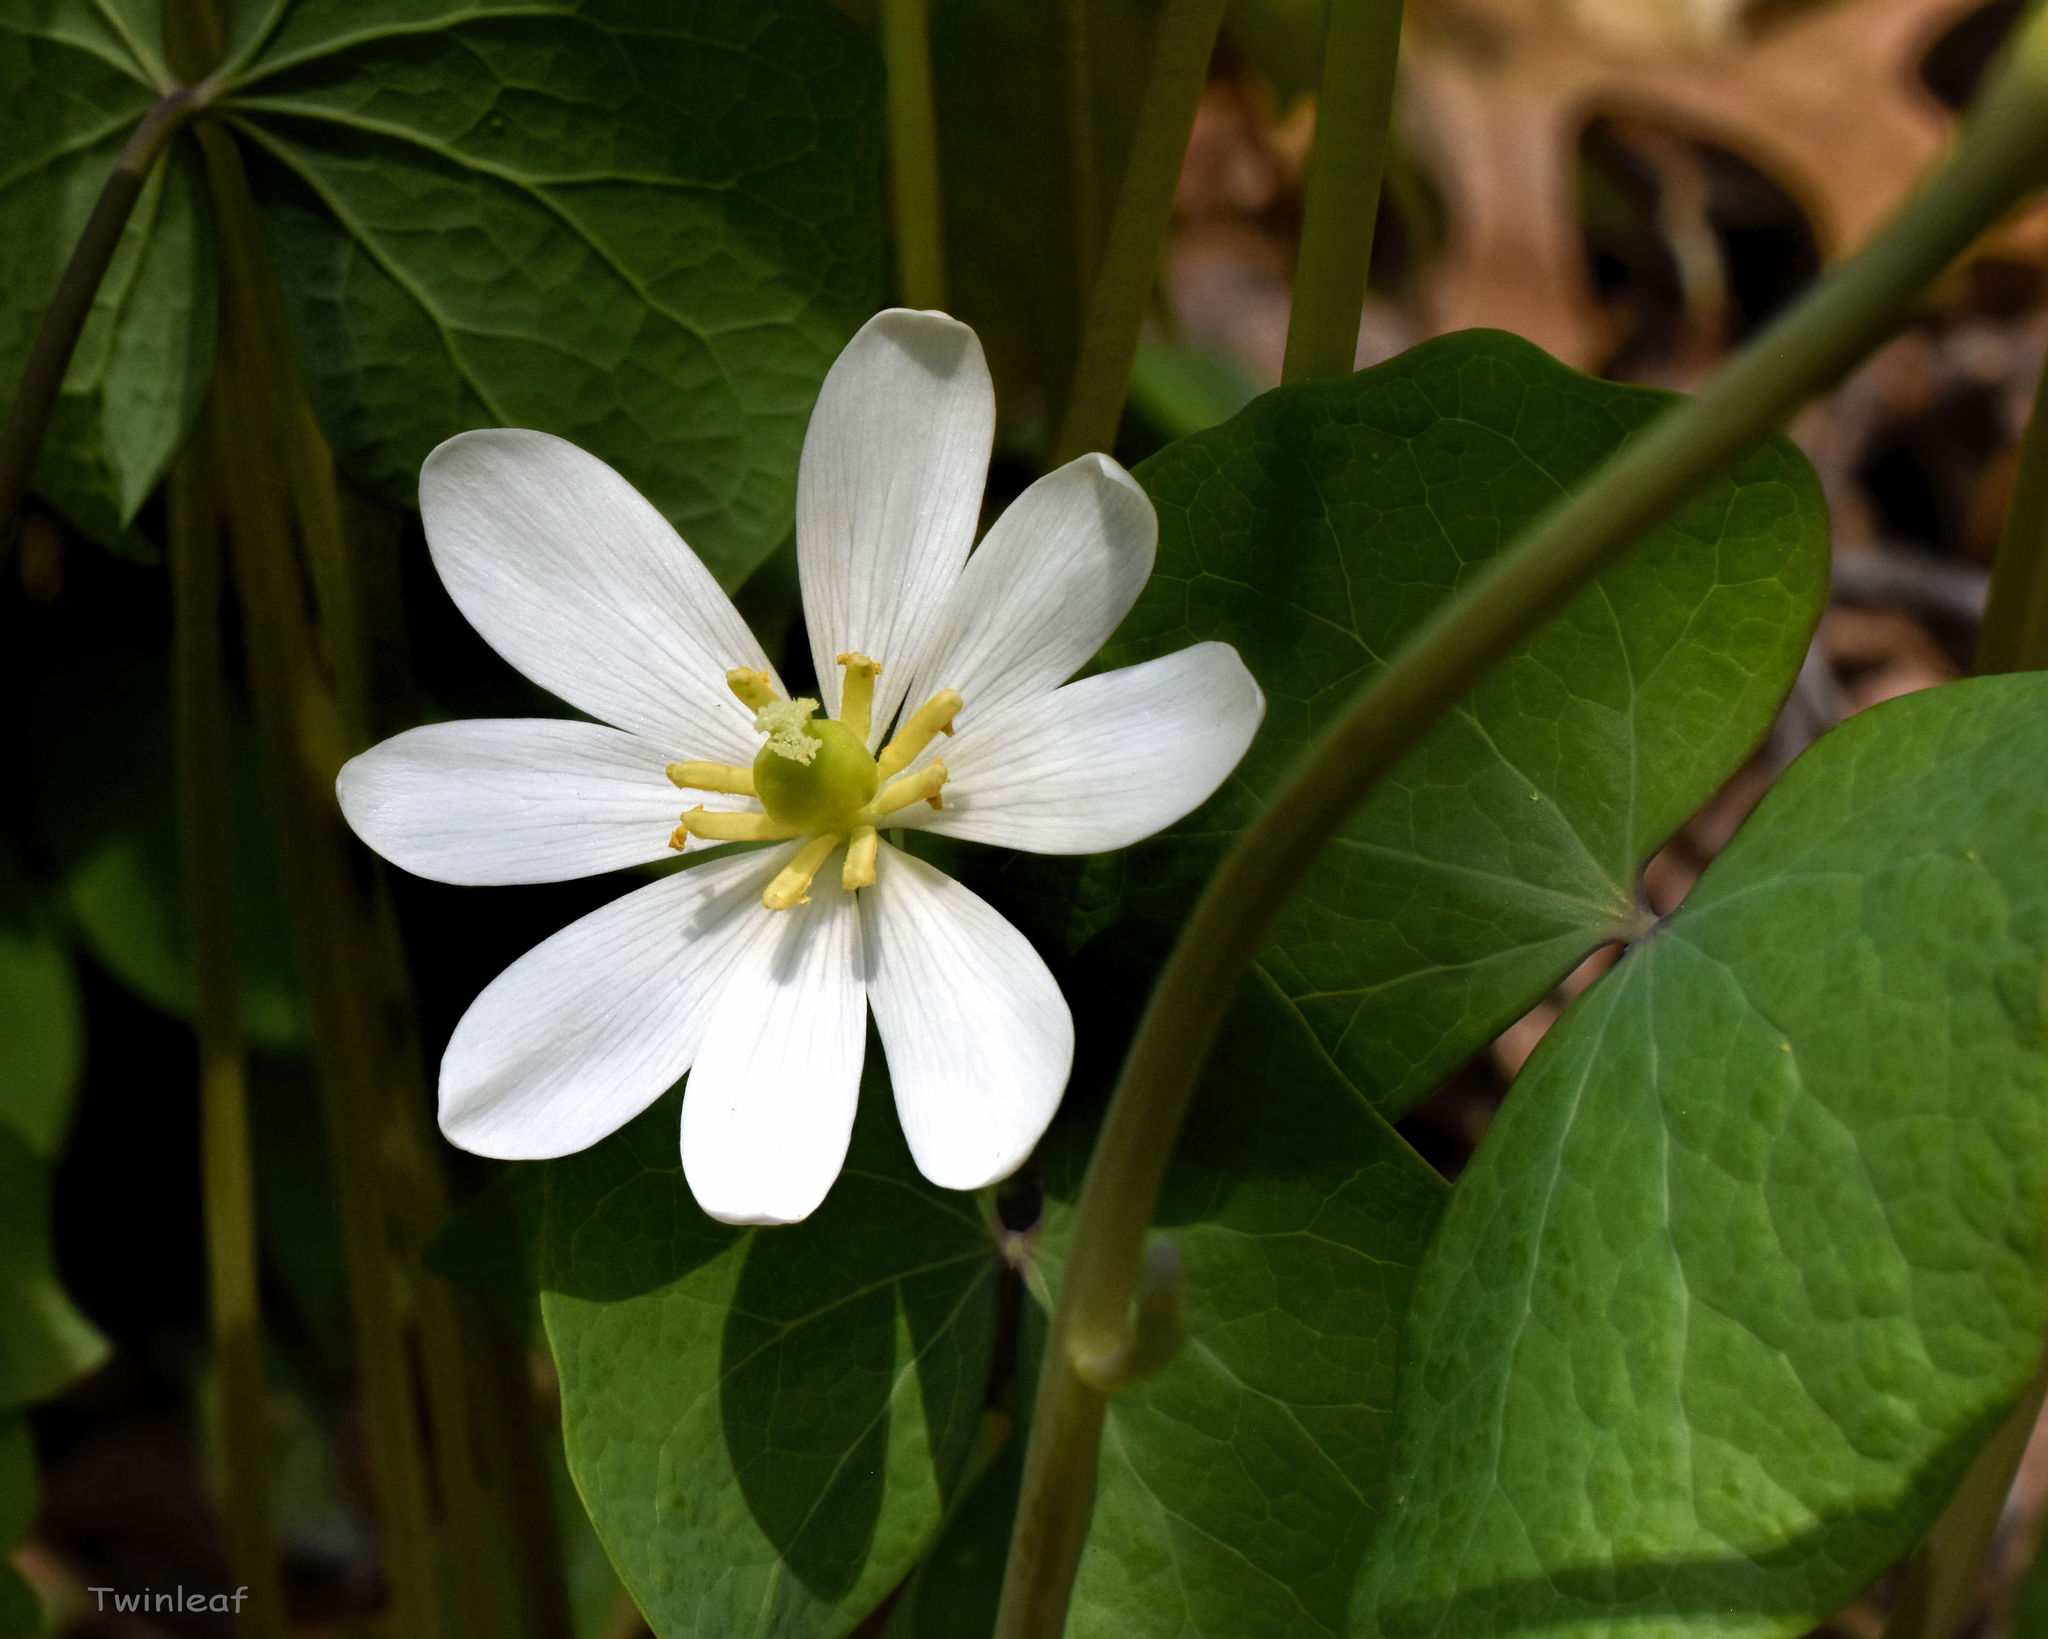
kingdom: Plantae
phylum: Tracheophyta
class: Magnoliopsida
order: Ranunculales
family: Berberidaceae
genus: Jeffersonia
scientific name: Jeffersonia diphylla
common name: Rheumatism-root
